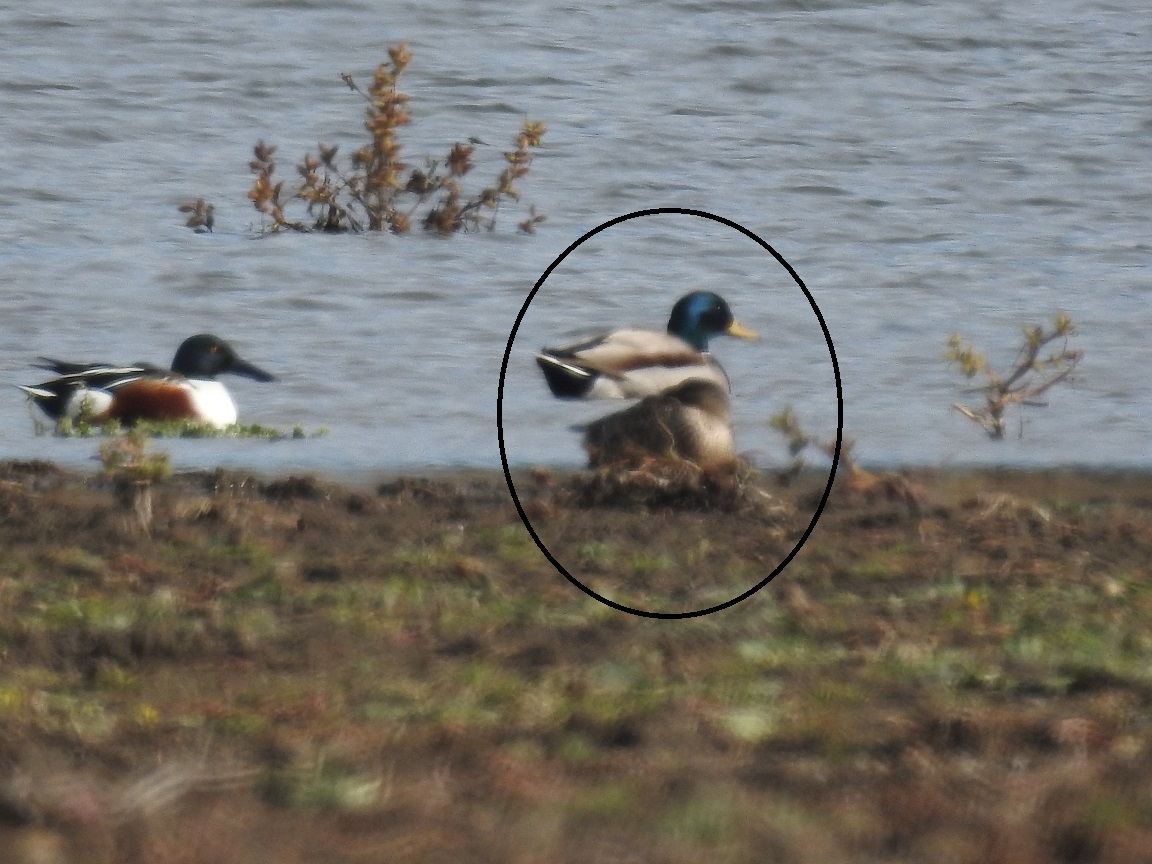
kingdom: Animalia
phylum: Chordata
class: Aves
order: Anseriformes
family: Anatidae
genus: Anas
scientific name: Anas platyrhynchos
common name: Mallard
